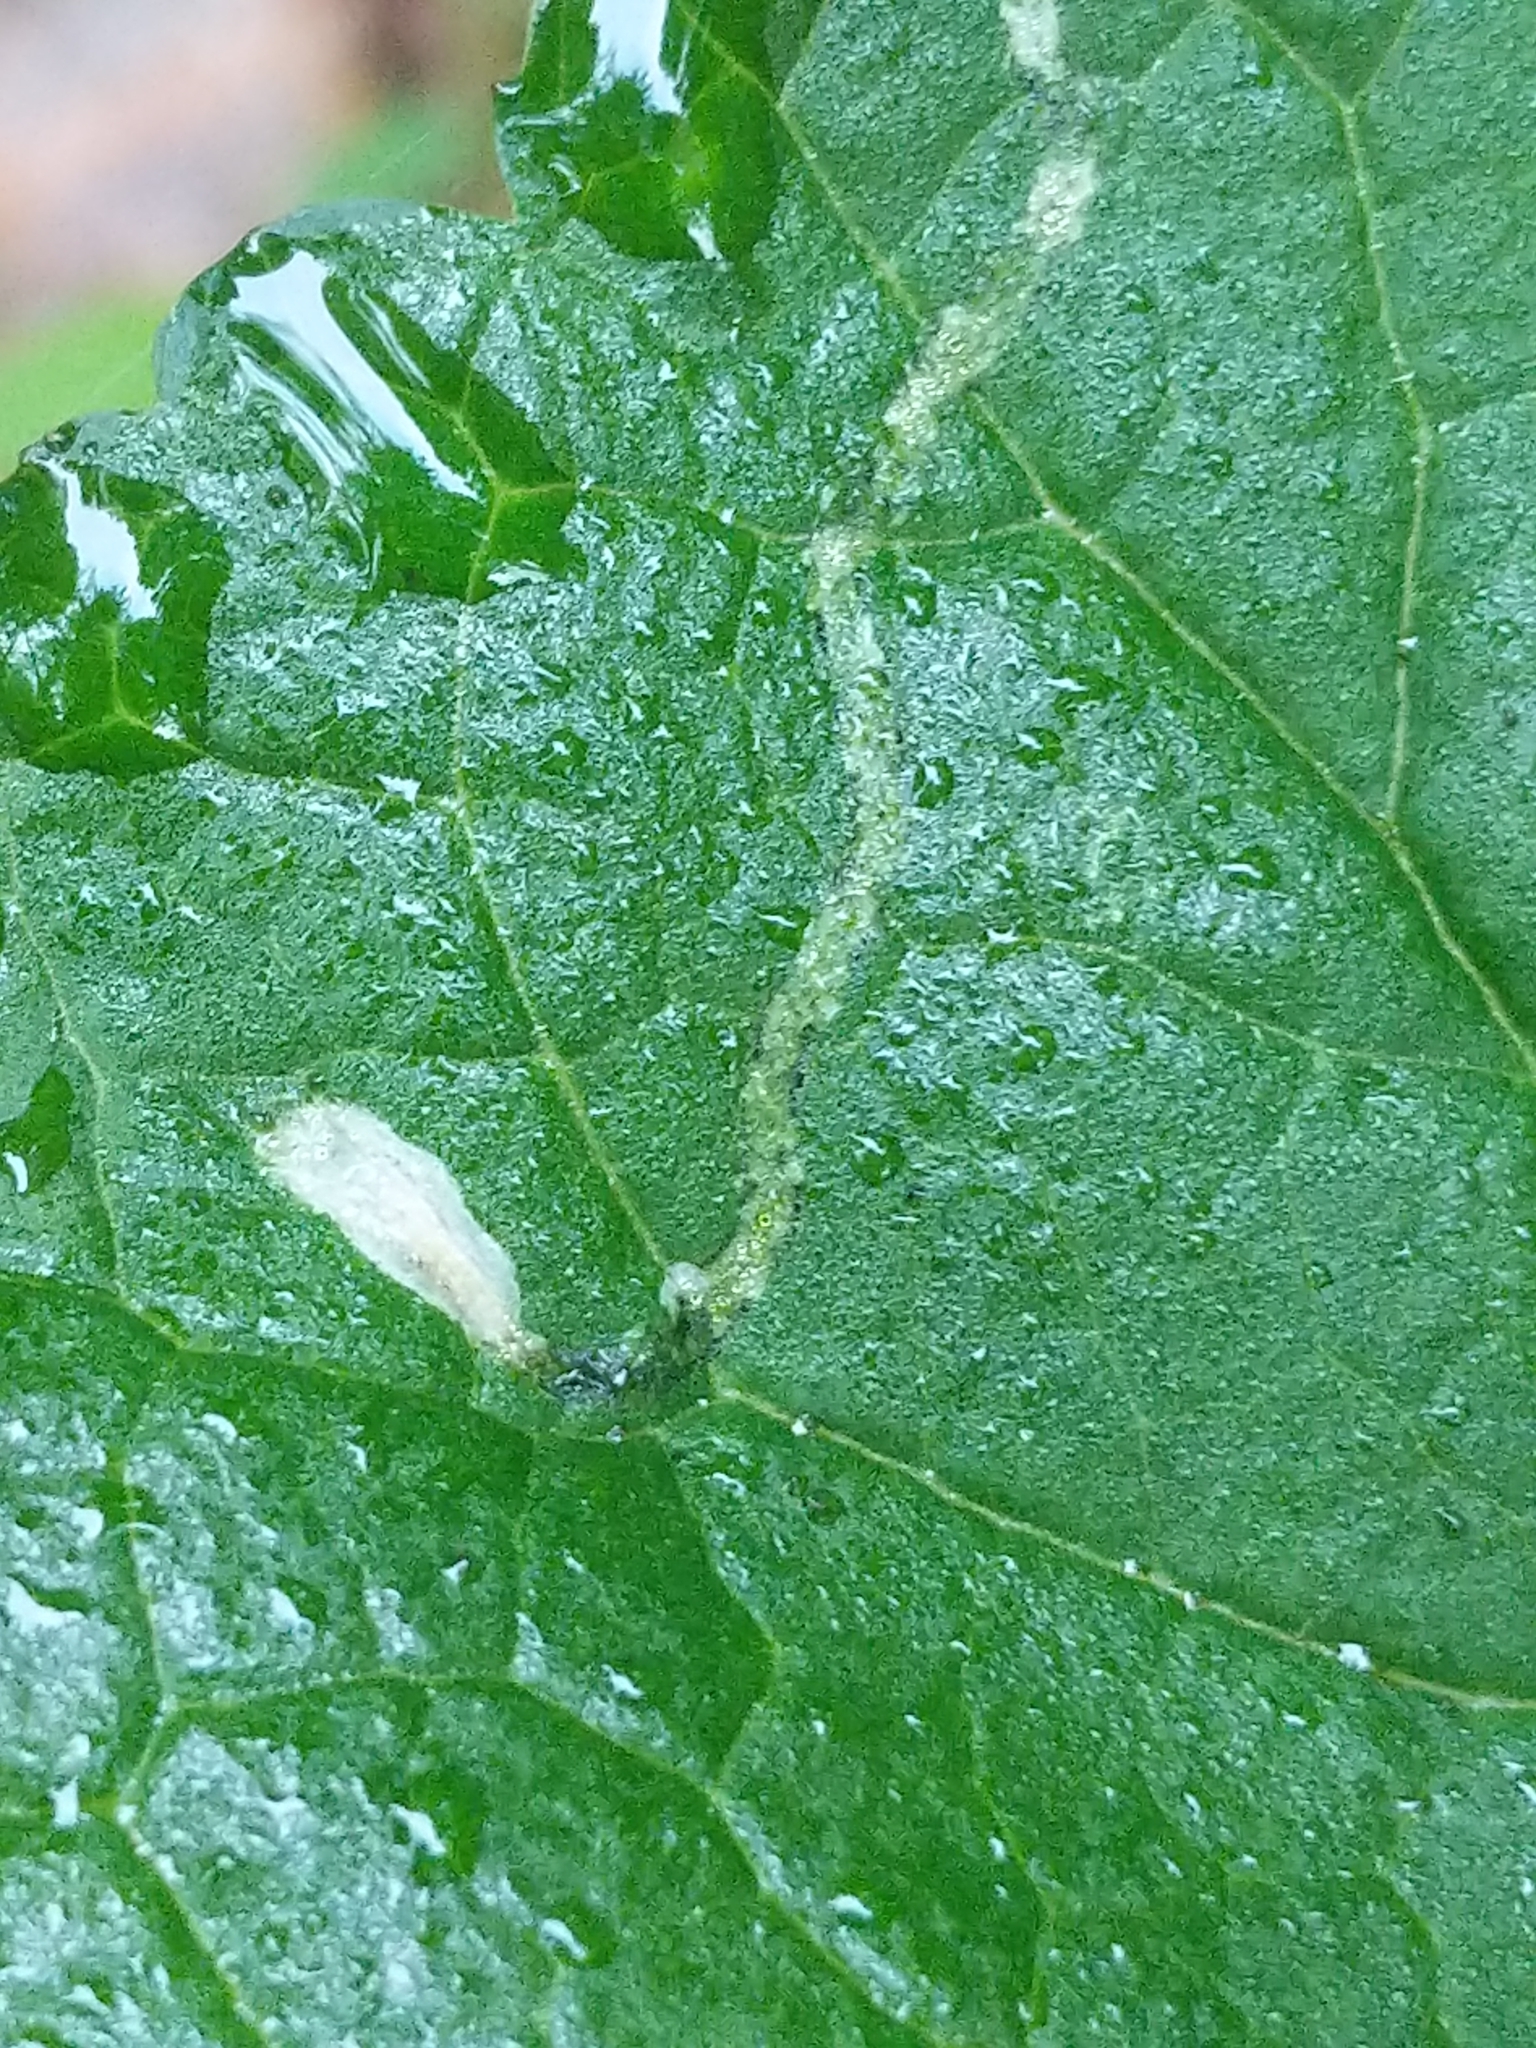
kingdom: Animalia
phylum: Arthropoda
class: Insecta
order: Lepidoptera
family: Gracillariidae
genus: Phyllocnistis
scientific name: Phyllocnistis insignis
